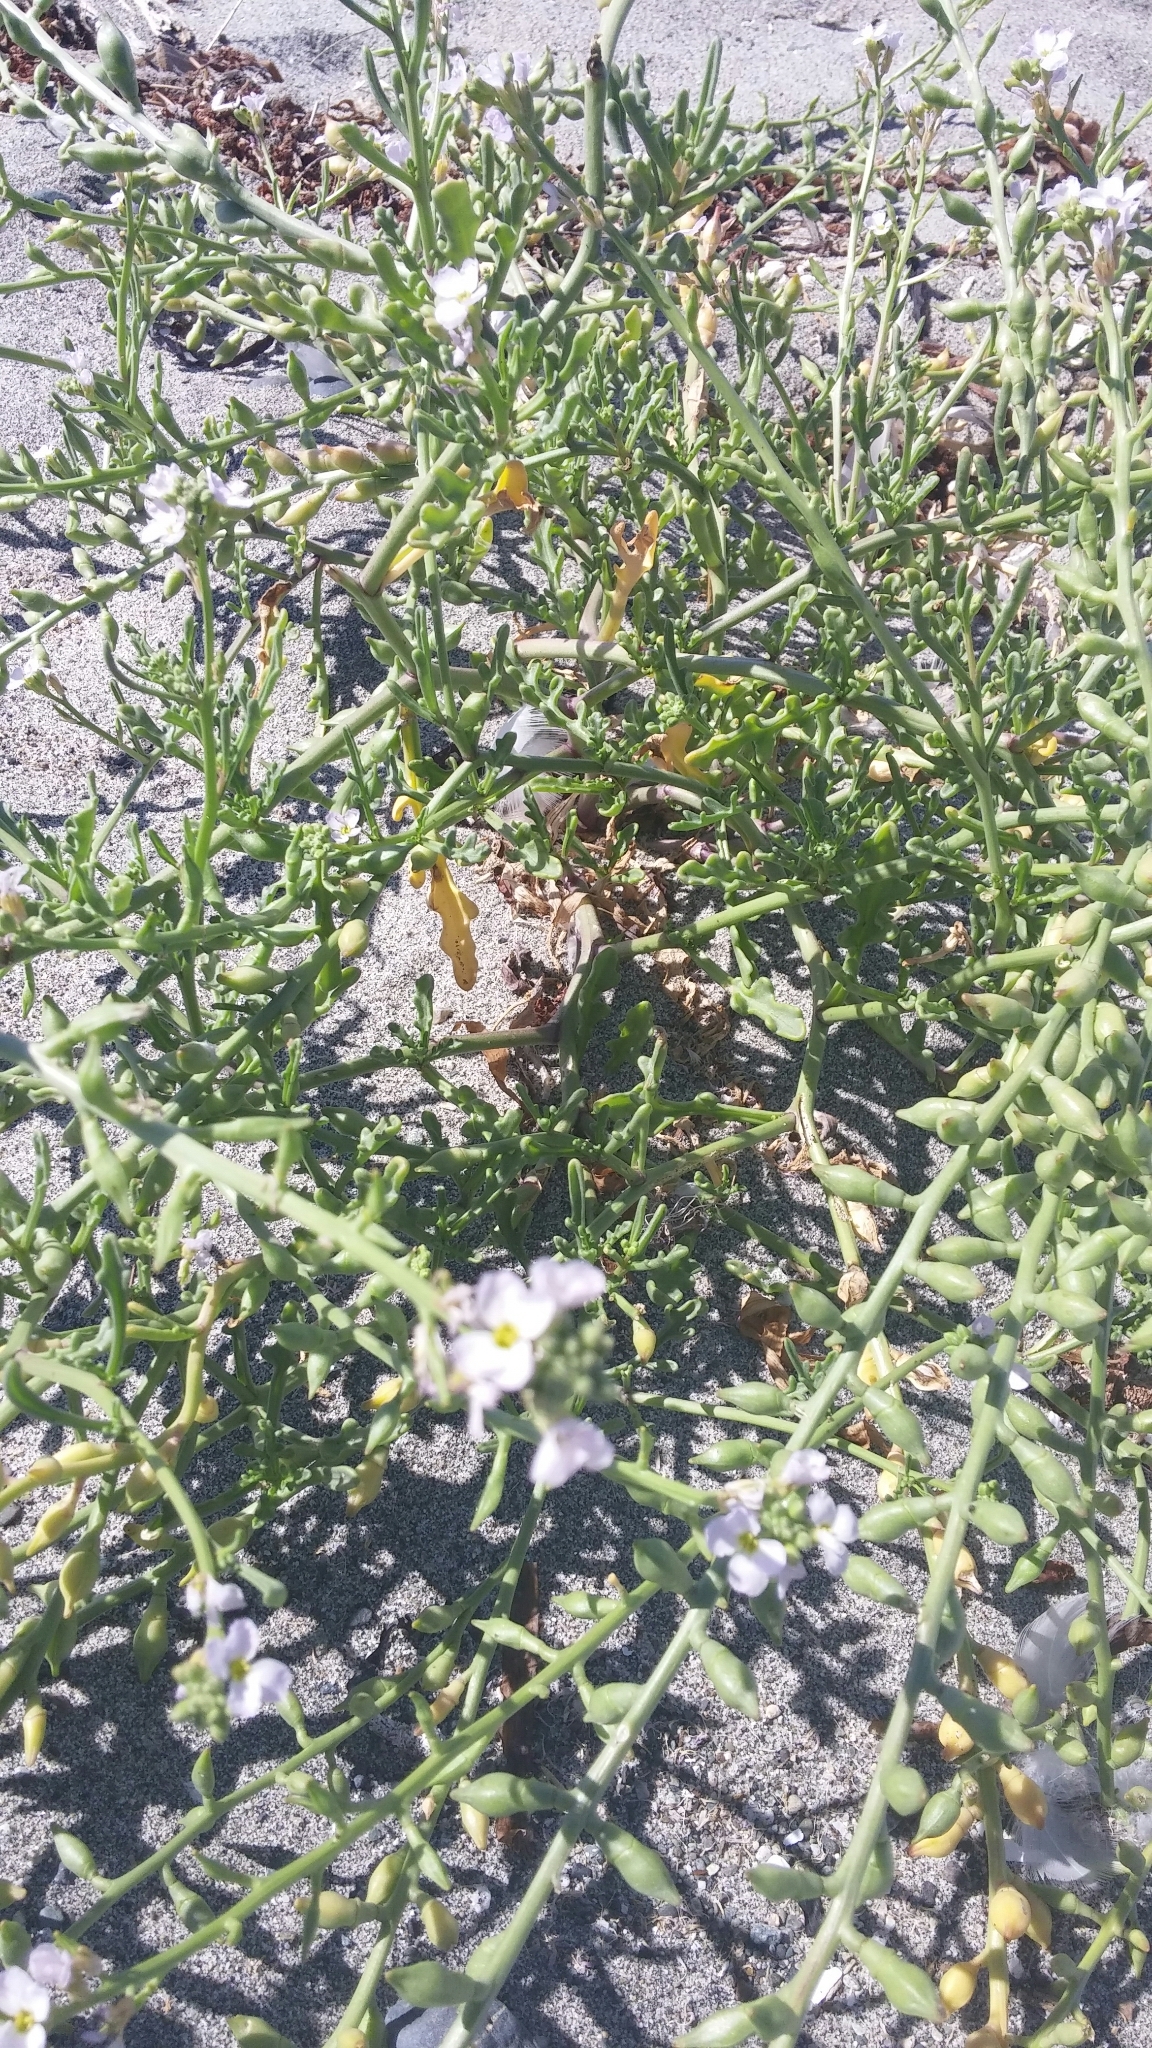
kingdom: Plantae
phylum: Tracheophyta
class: Magnoliopsida
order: Brassicales
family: Brassicaceae
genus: Cakile
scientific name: Cakile maritima
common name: Sea rocket
